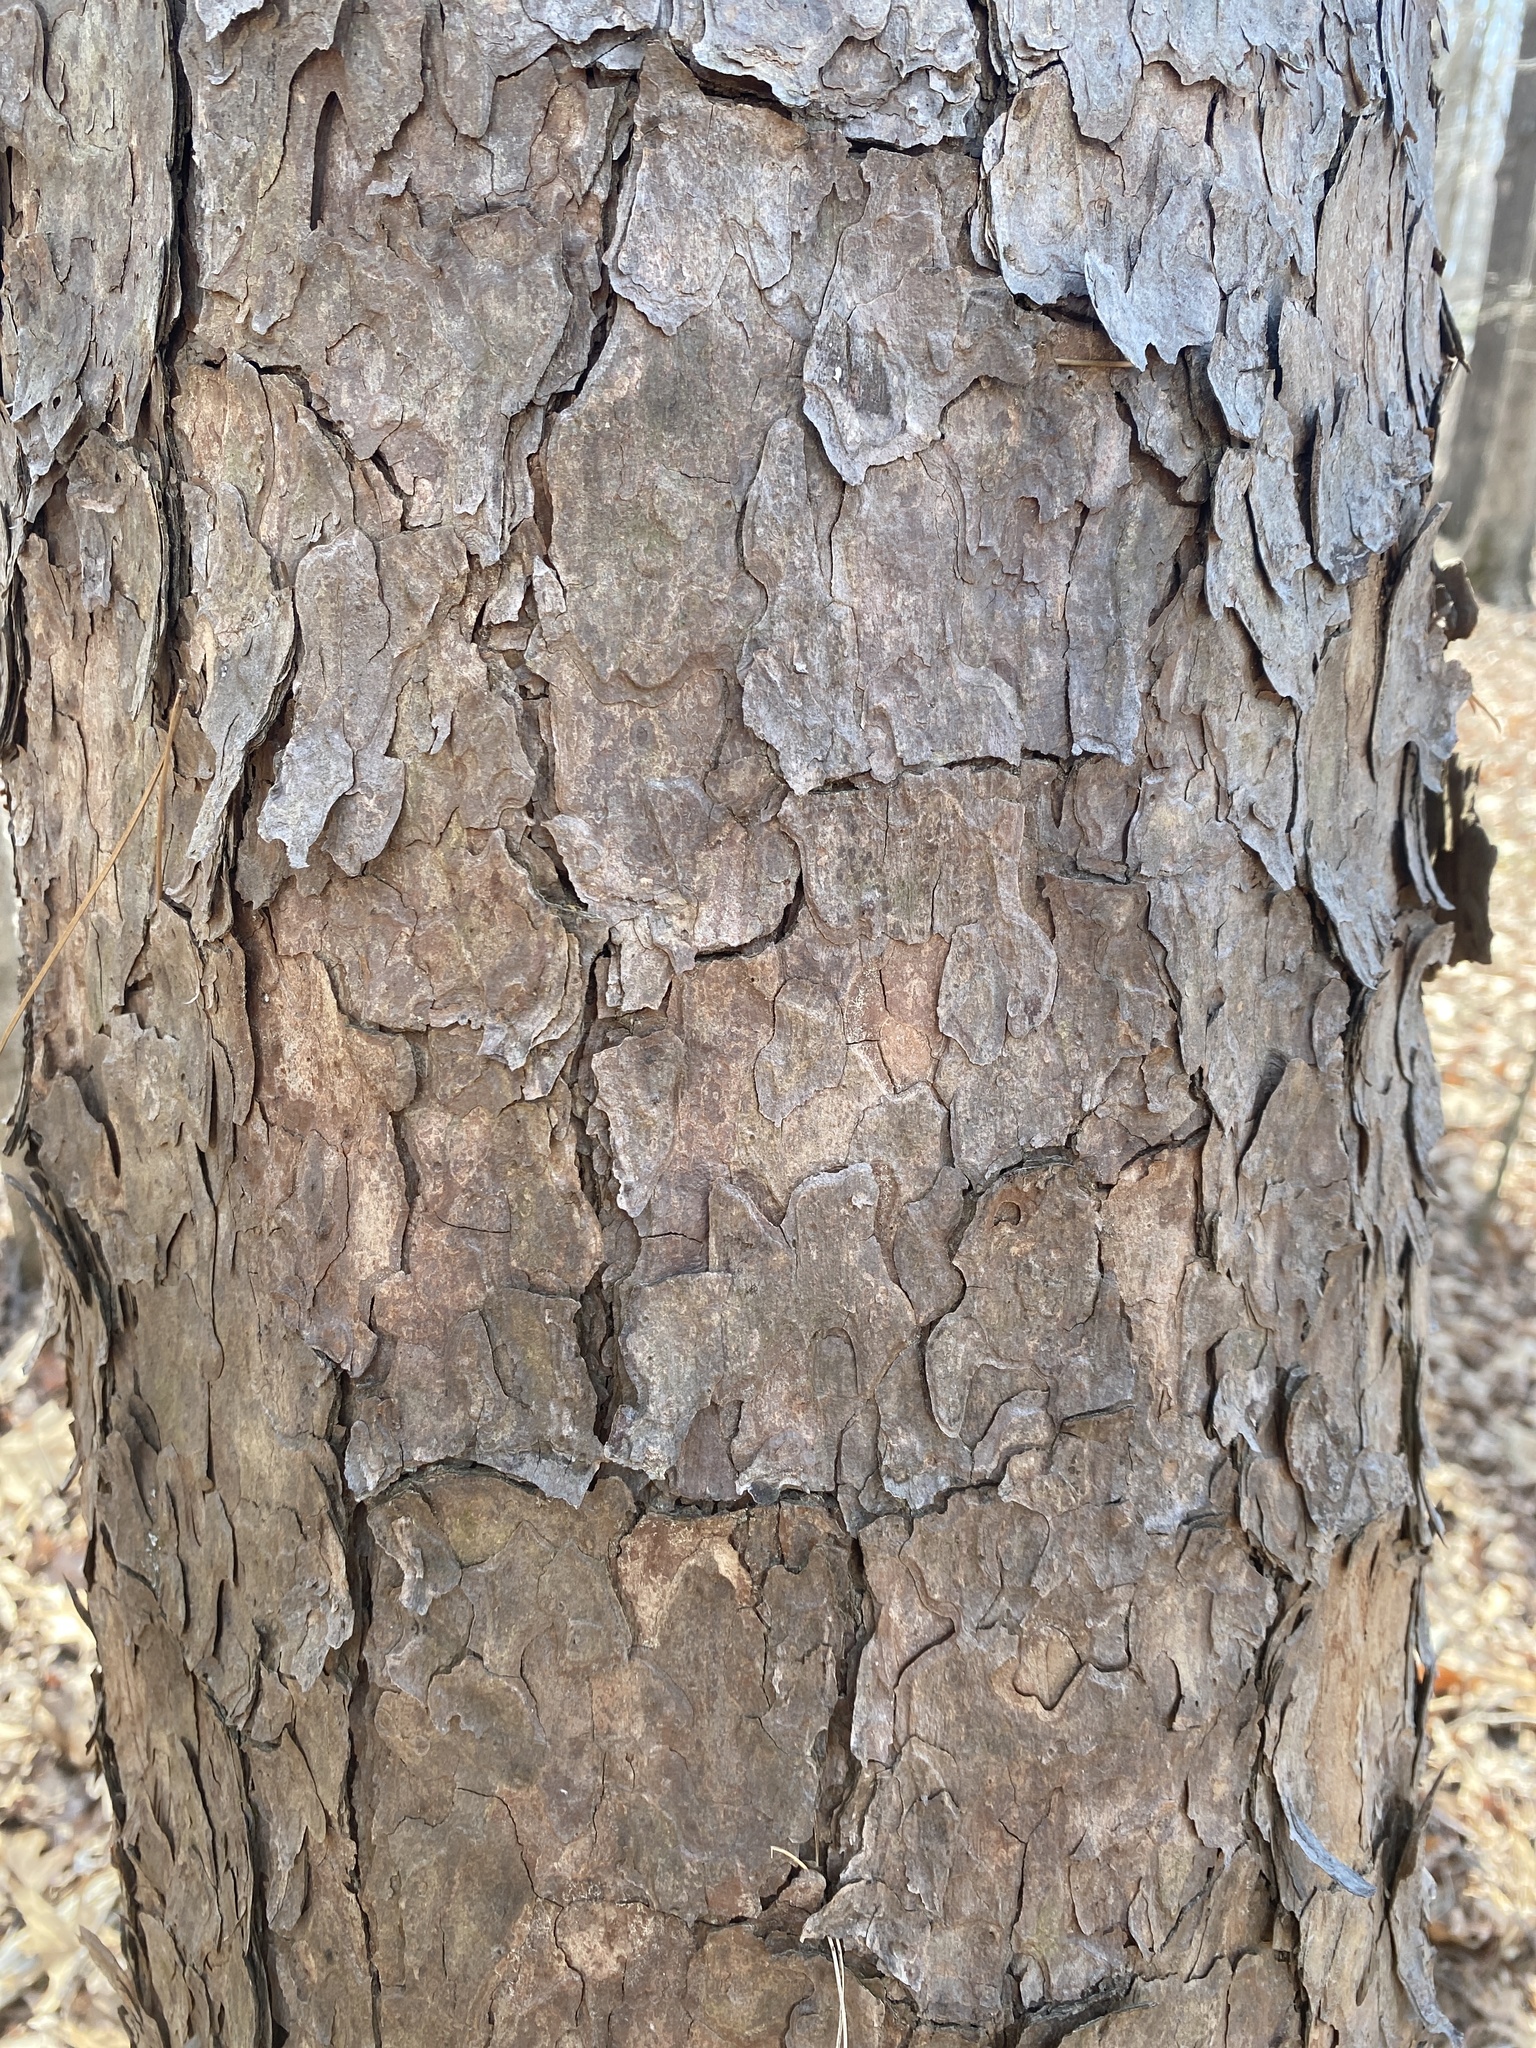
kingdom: Plantae
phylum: Tracheophyta
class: Pinopsida
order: Pinales
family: Pinaceae
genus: Pinus
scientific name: Pinus echinata
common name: Shortleaf pine
